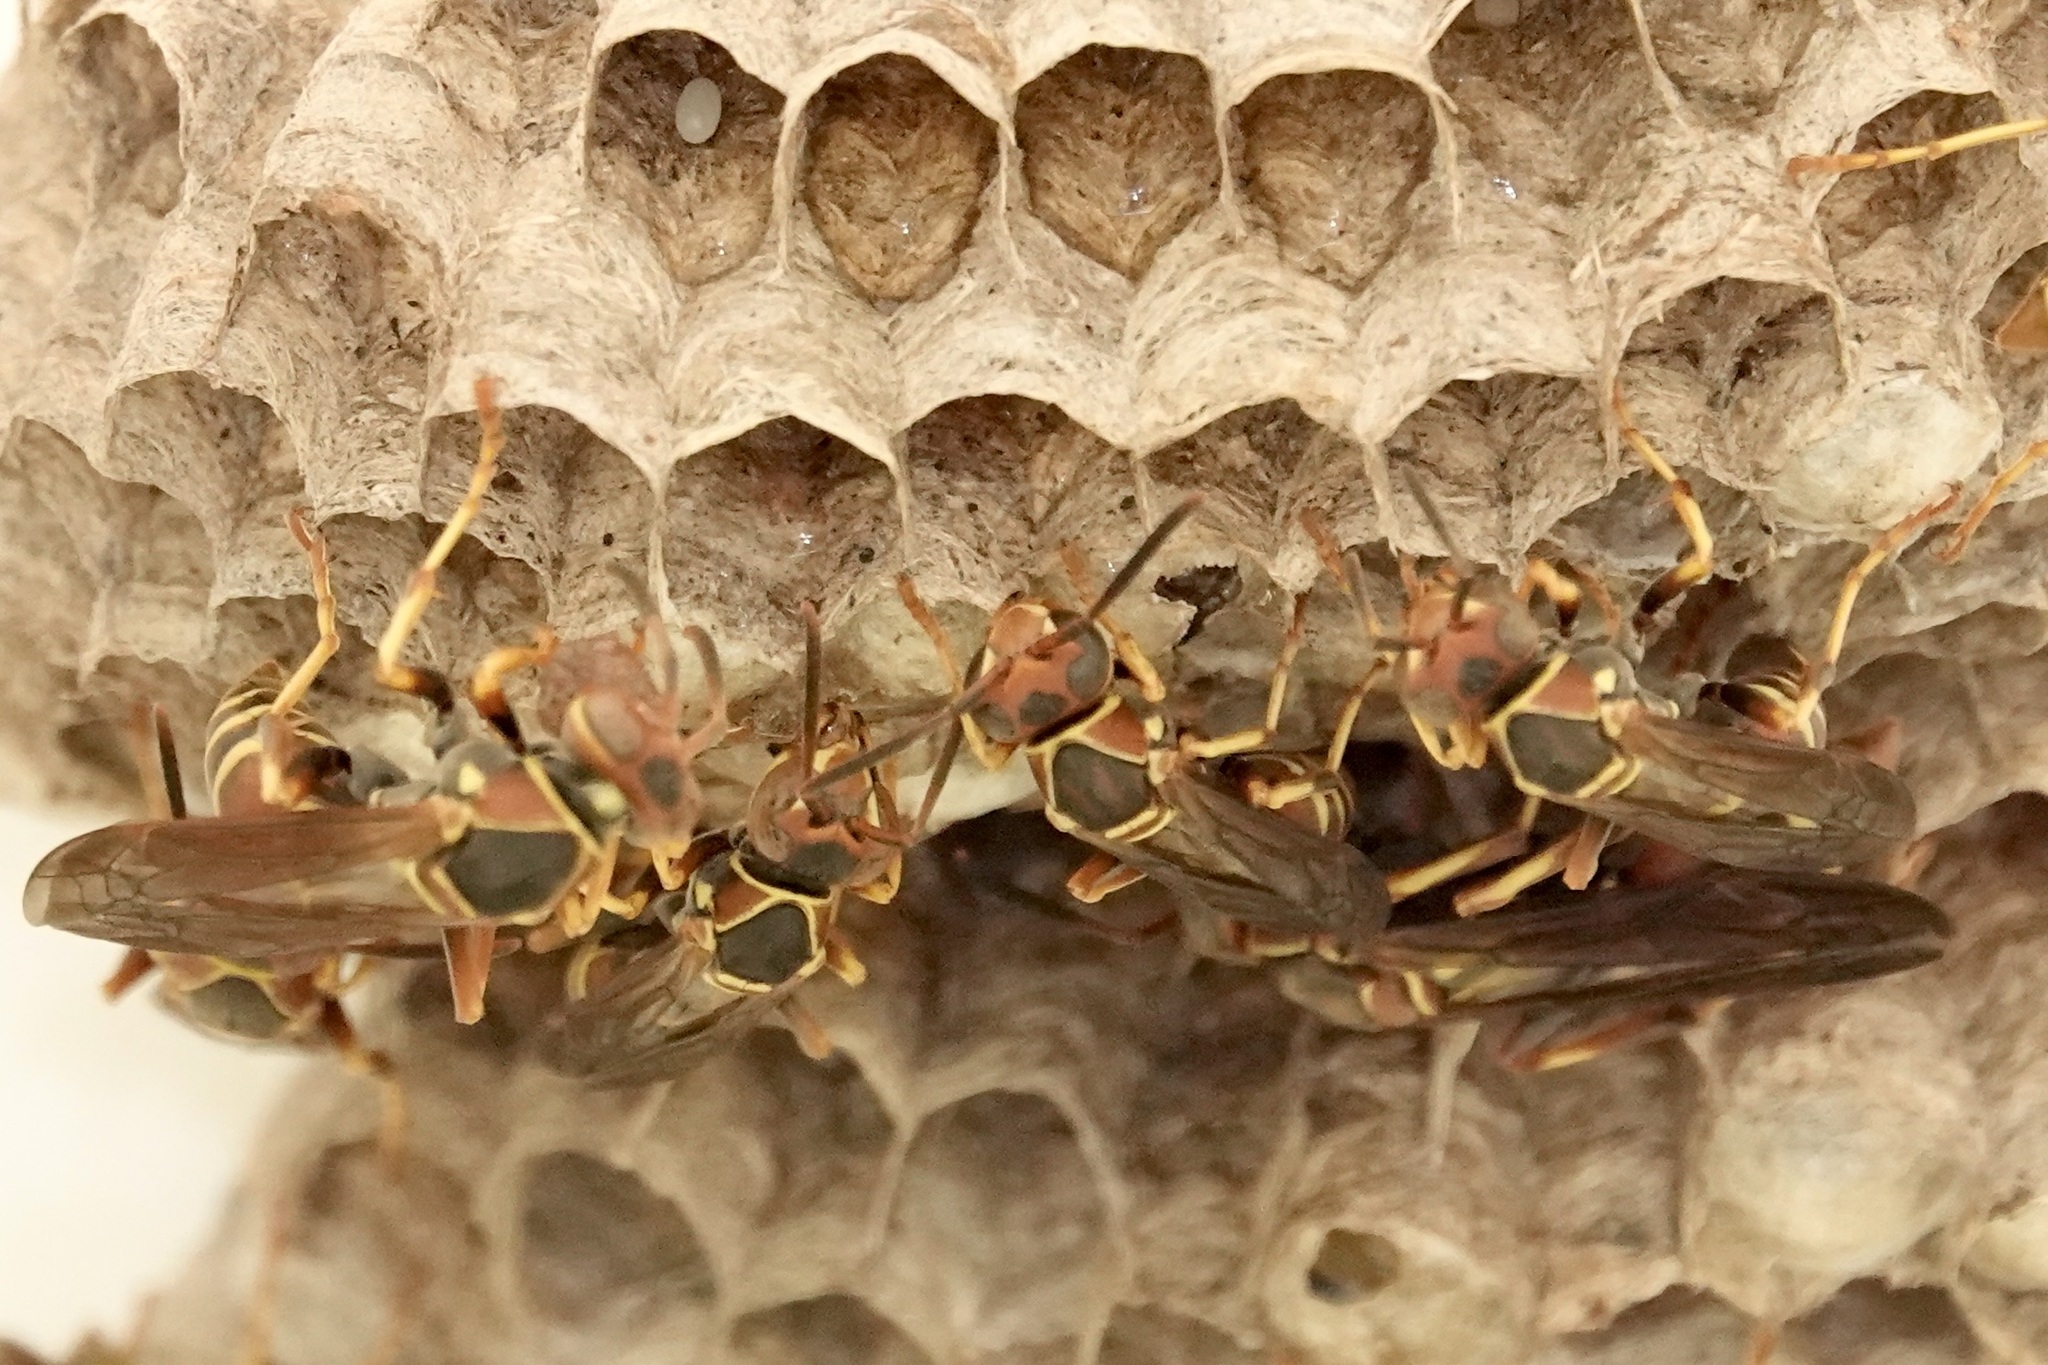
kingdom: Animalia
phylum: Arthropoda
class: Insecta
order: Hymenoptera
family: Eumenidae
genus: Polistes
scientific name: Polistes dorsalis
